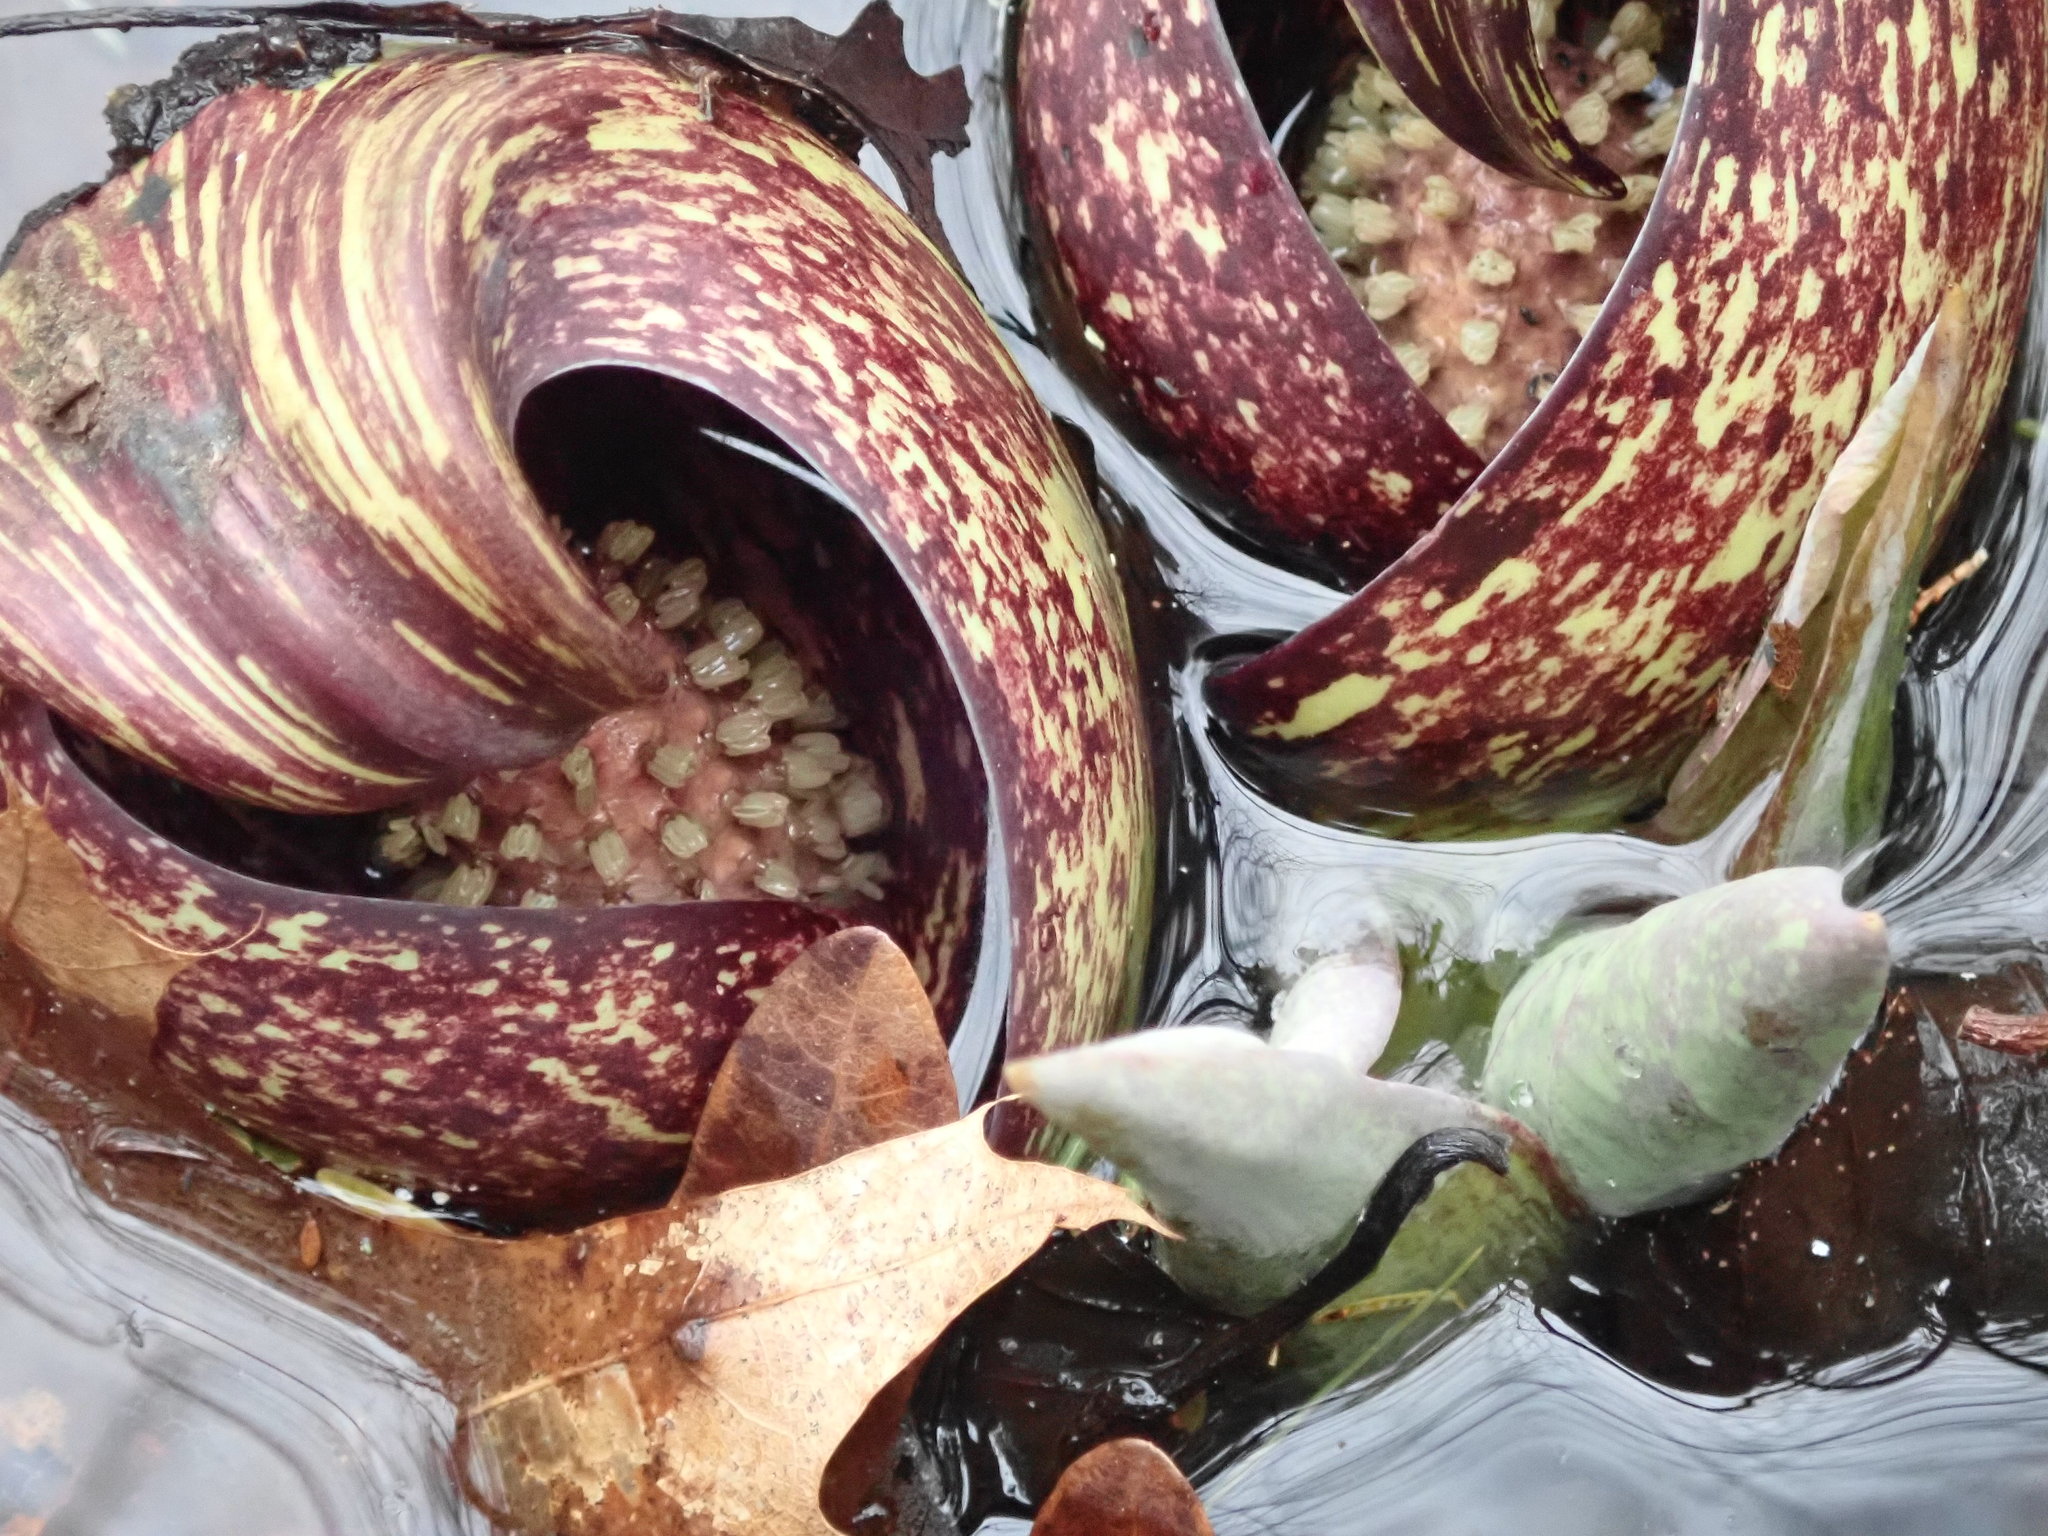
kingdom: Plantae
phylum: Tracheophyta
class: Liliopsida
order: Alismatales
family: Araceae
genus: Symplocarpus
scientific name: Symplocarpus foetidus
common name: Eastern skunk cabbage
